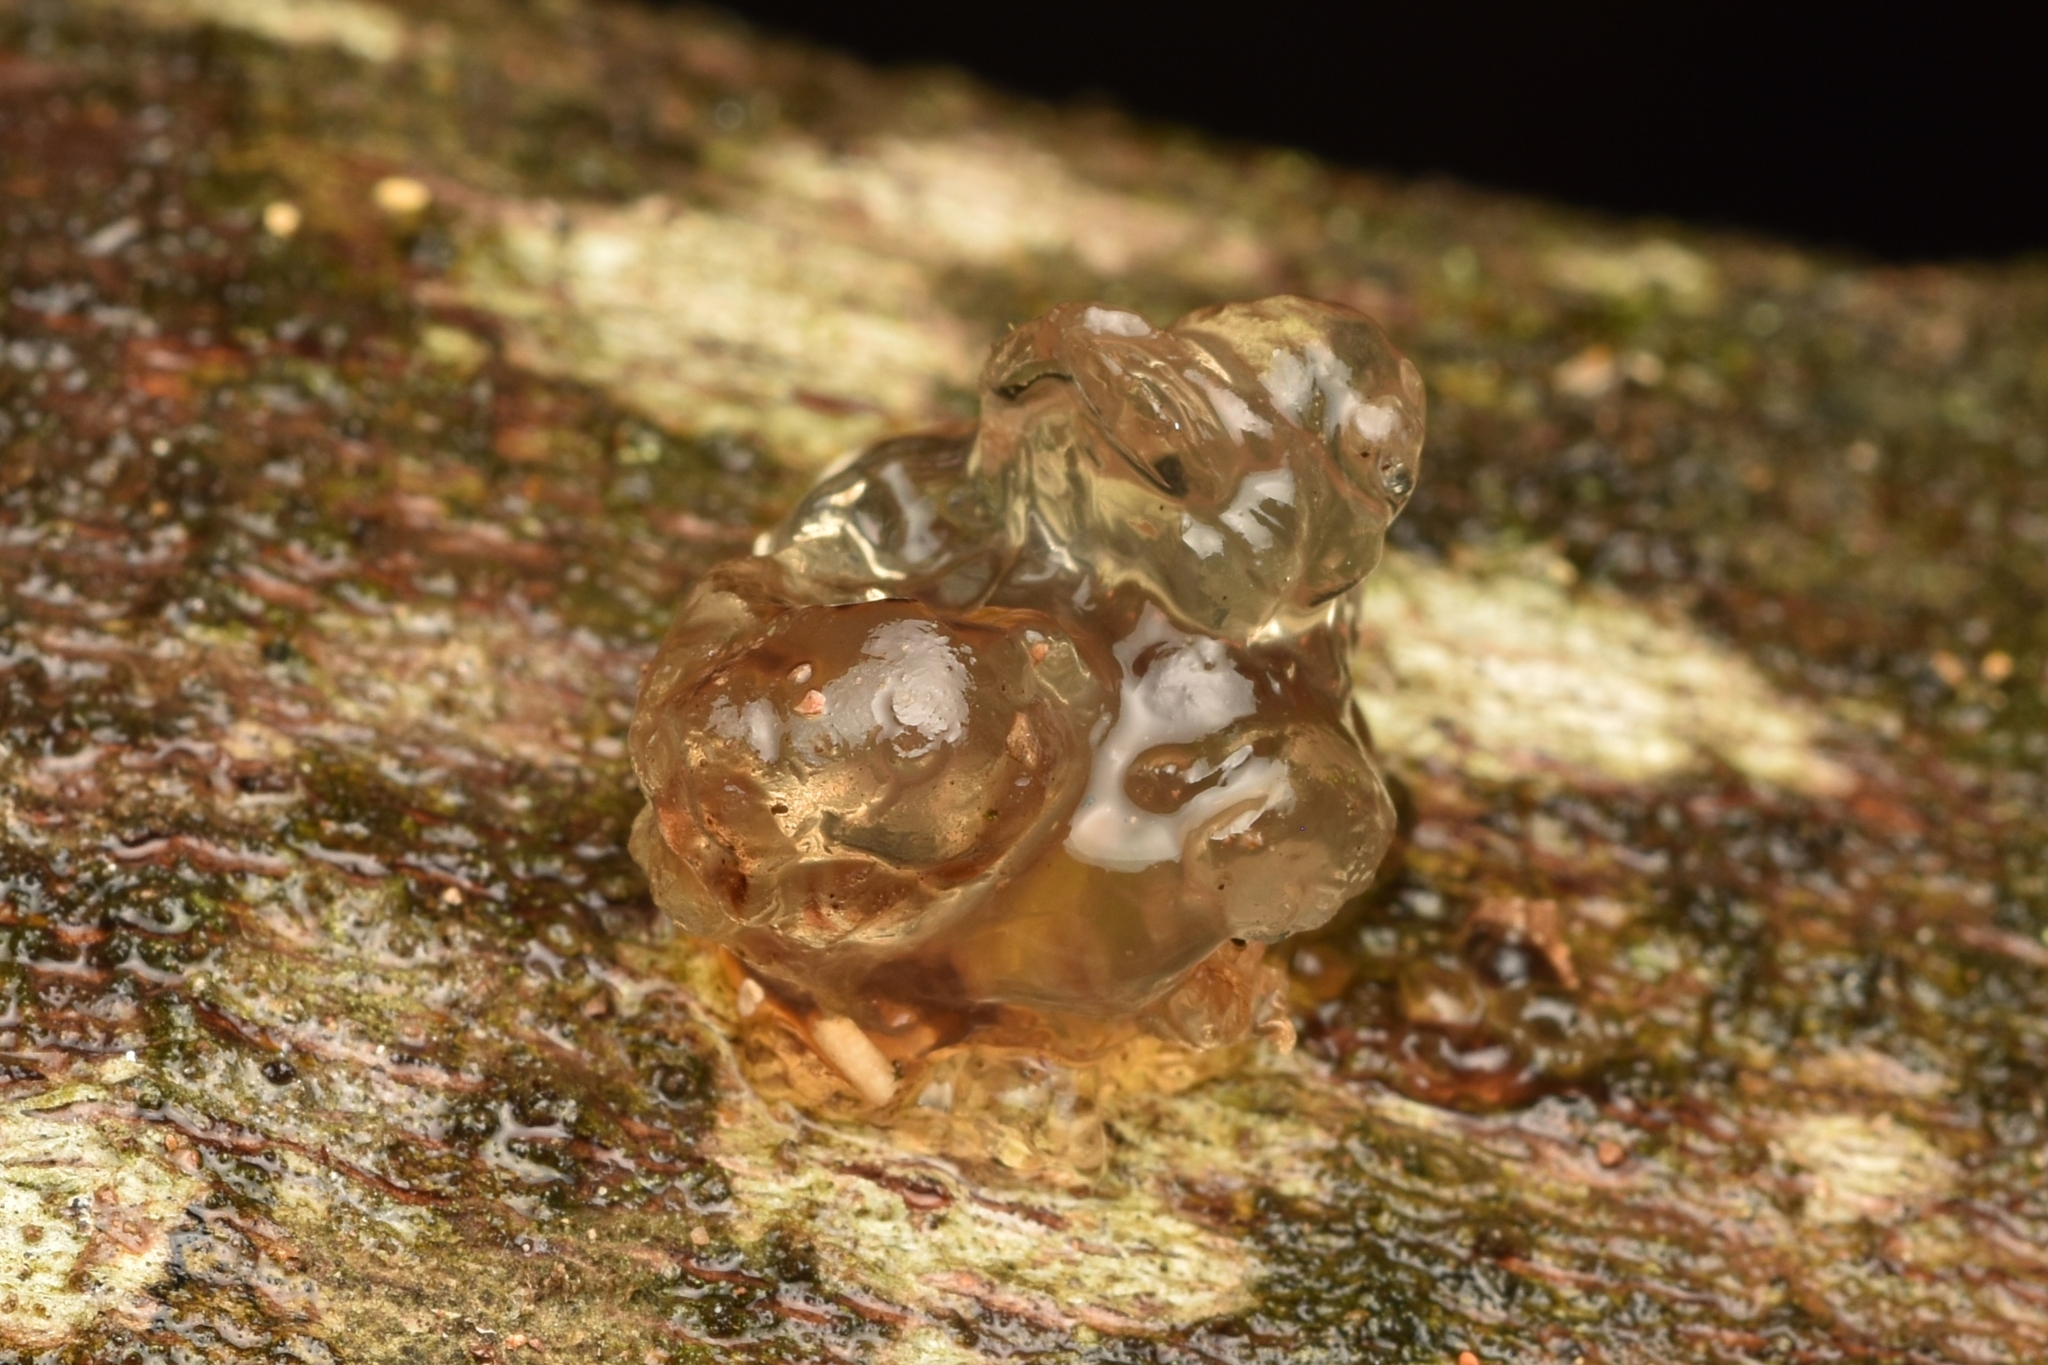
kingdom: Fungi
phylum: Basidiomycota
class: Agaricomycetes
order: Auriculariales
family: Hyaloriaceae
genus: Myxarium
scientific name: Myxarium nucleatum
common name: Crystal brain fungus
